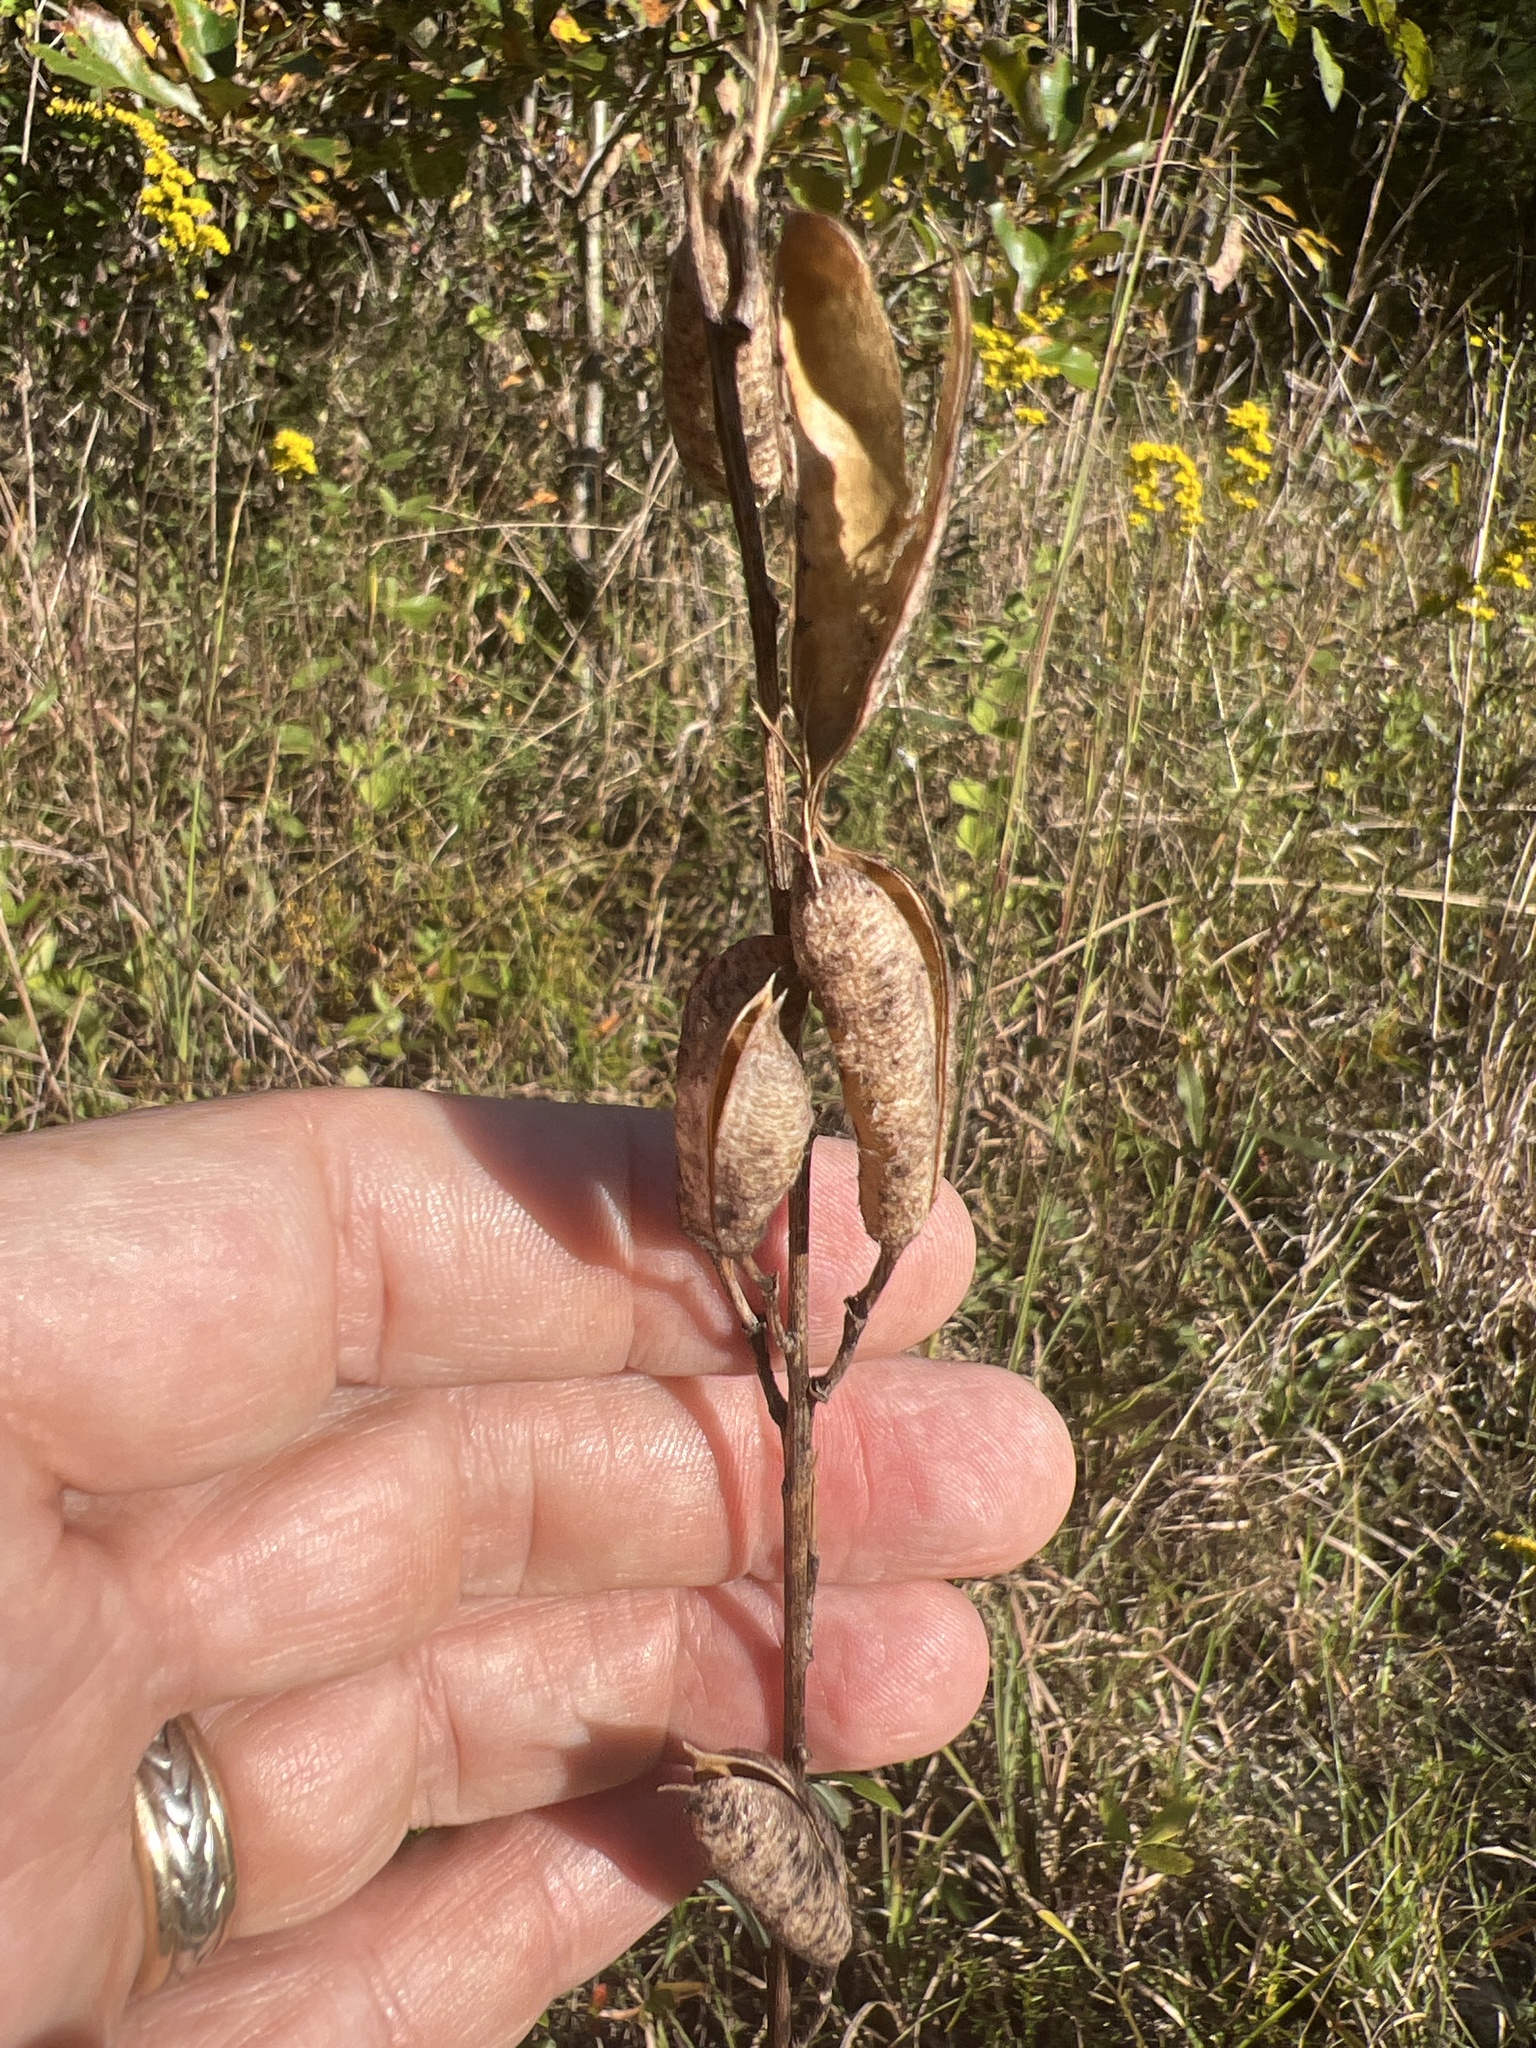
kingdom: Plantae
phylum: Tracheophyta
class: Magnoliopsida
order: Fabales
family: Fabaceae
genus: Baptisia
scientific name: Baptisia albescens
